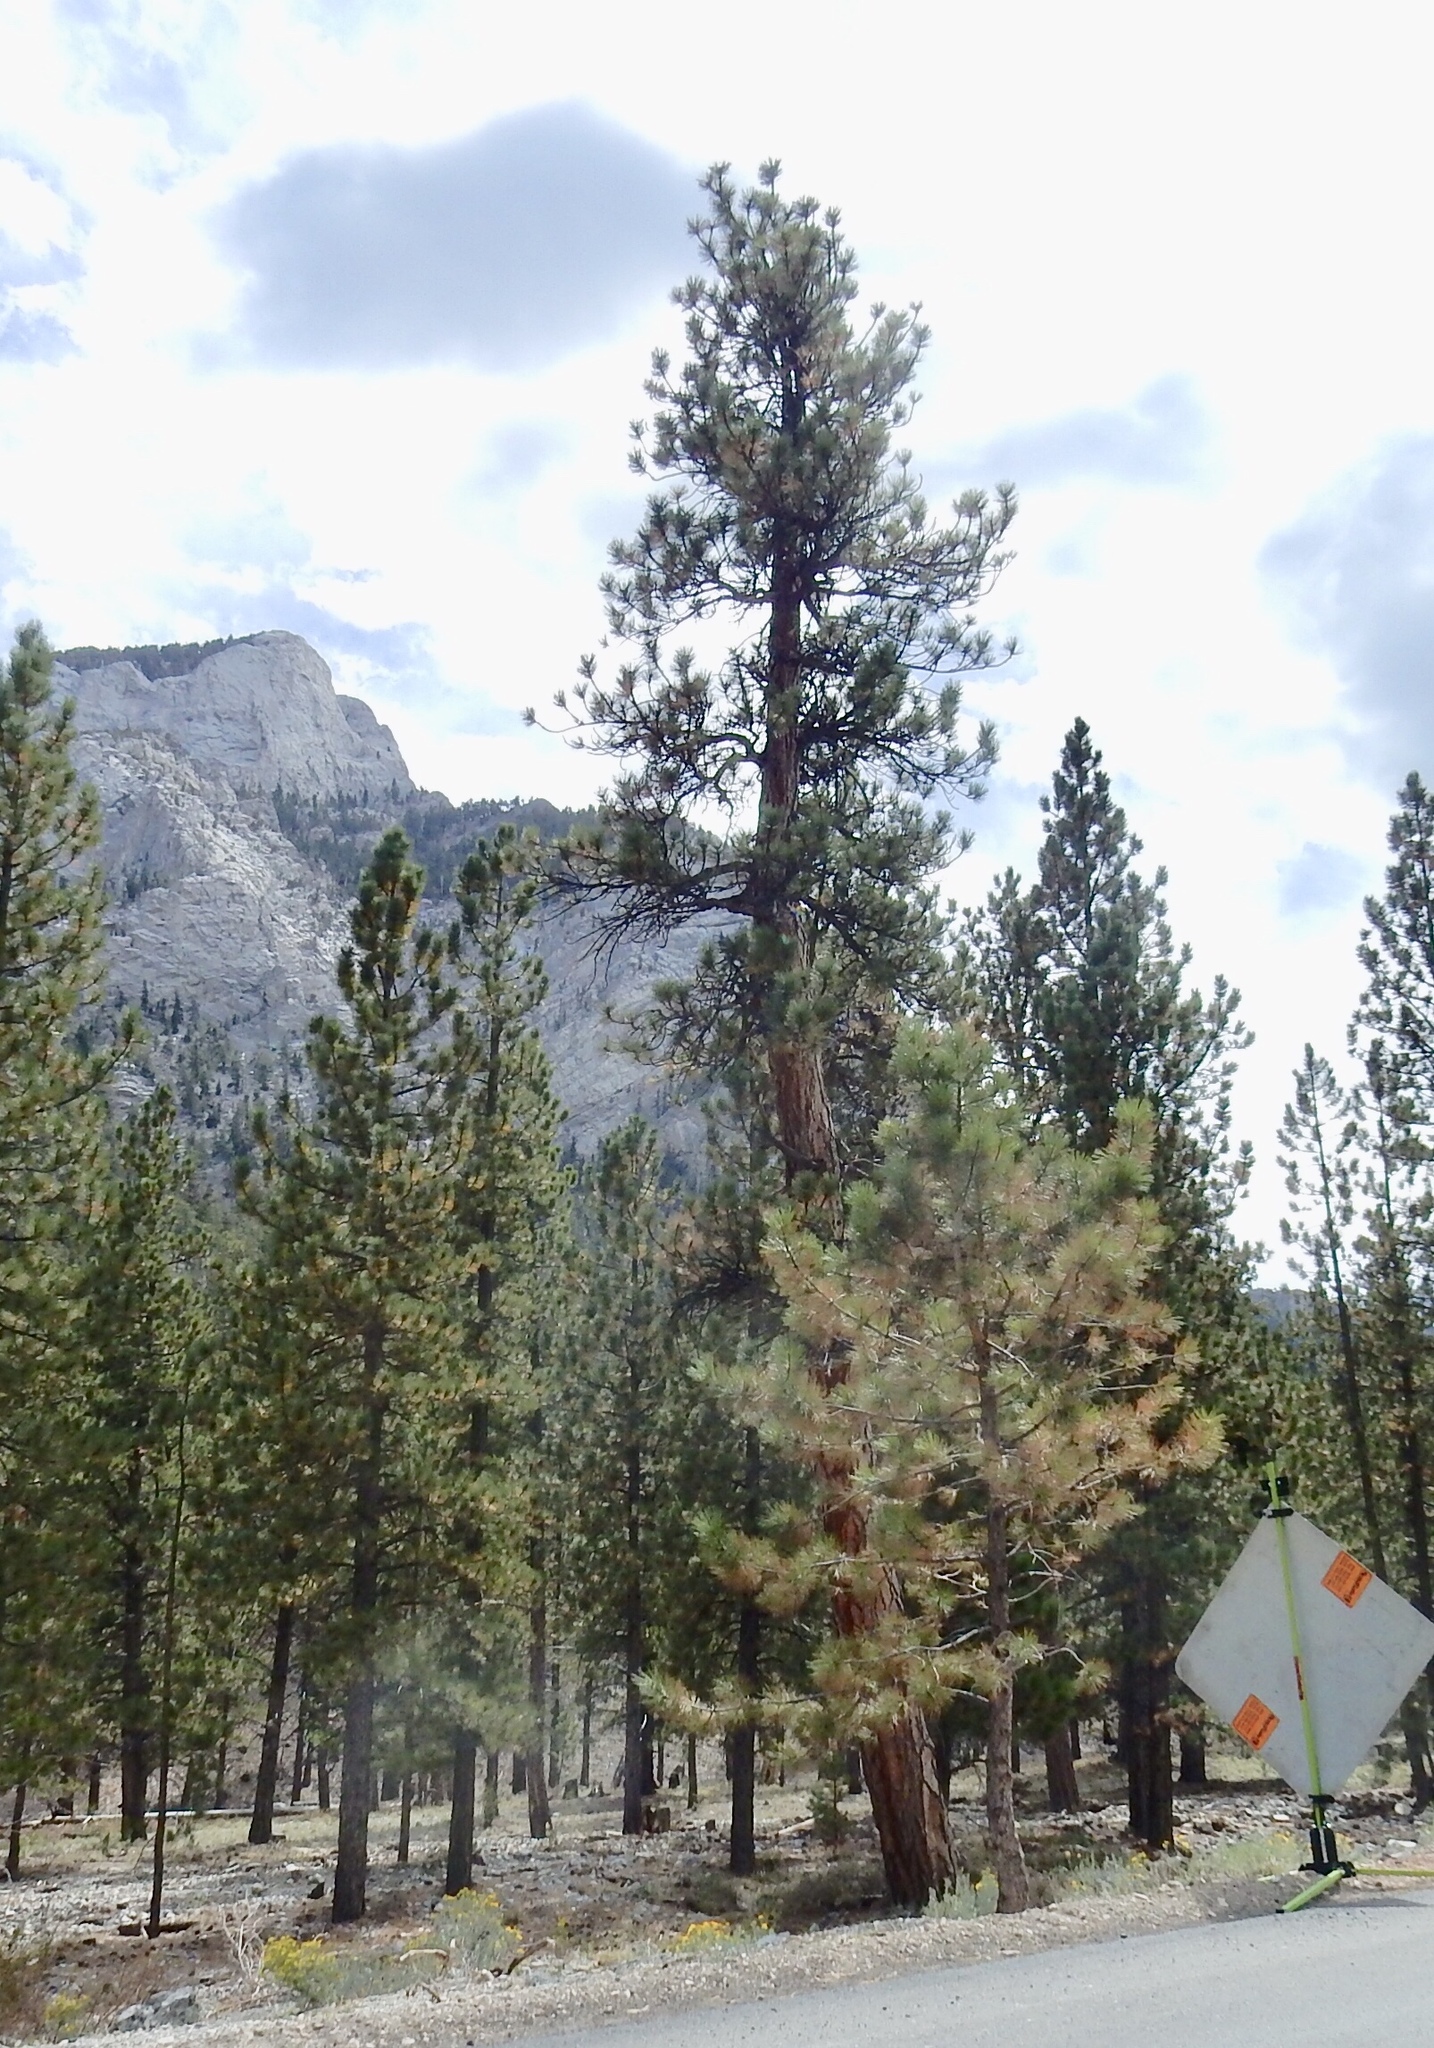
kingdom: Plantae
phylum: Tracheophyta
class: Pinopsida
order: Pinales
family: Pinaceae
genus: Pinus
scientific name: Pinus ponderosa
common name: Western yellow-pine
